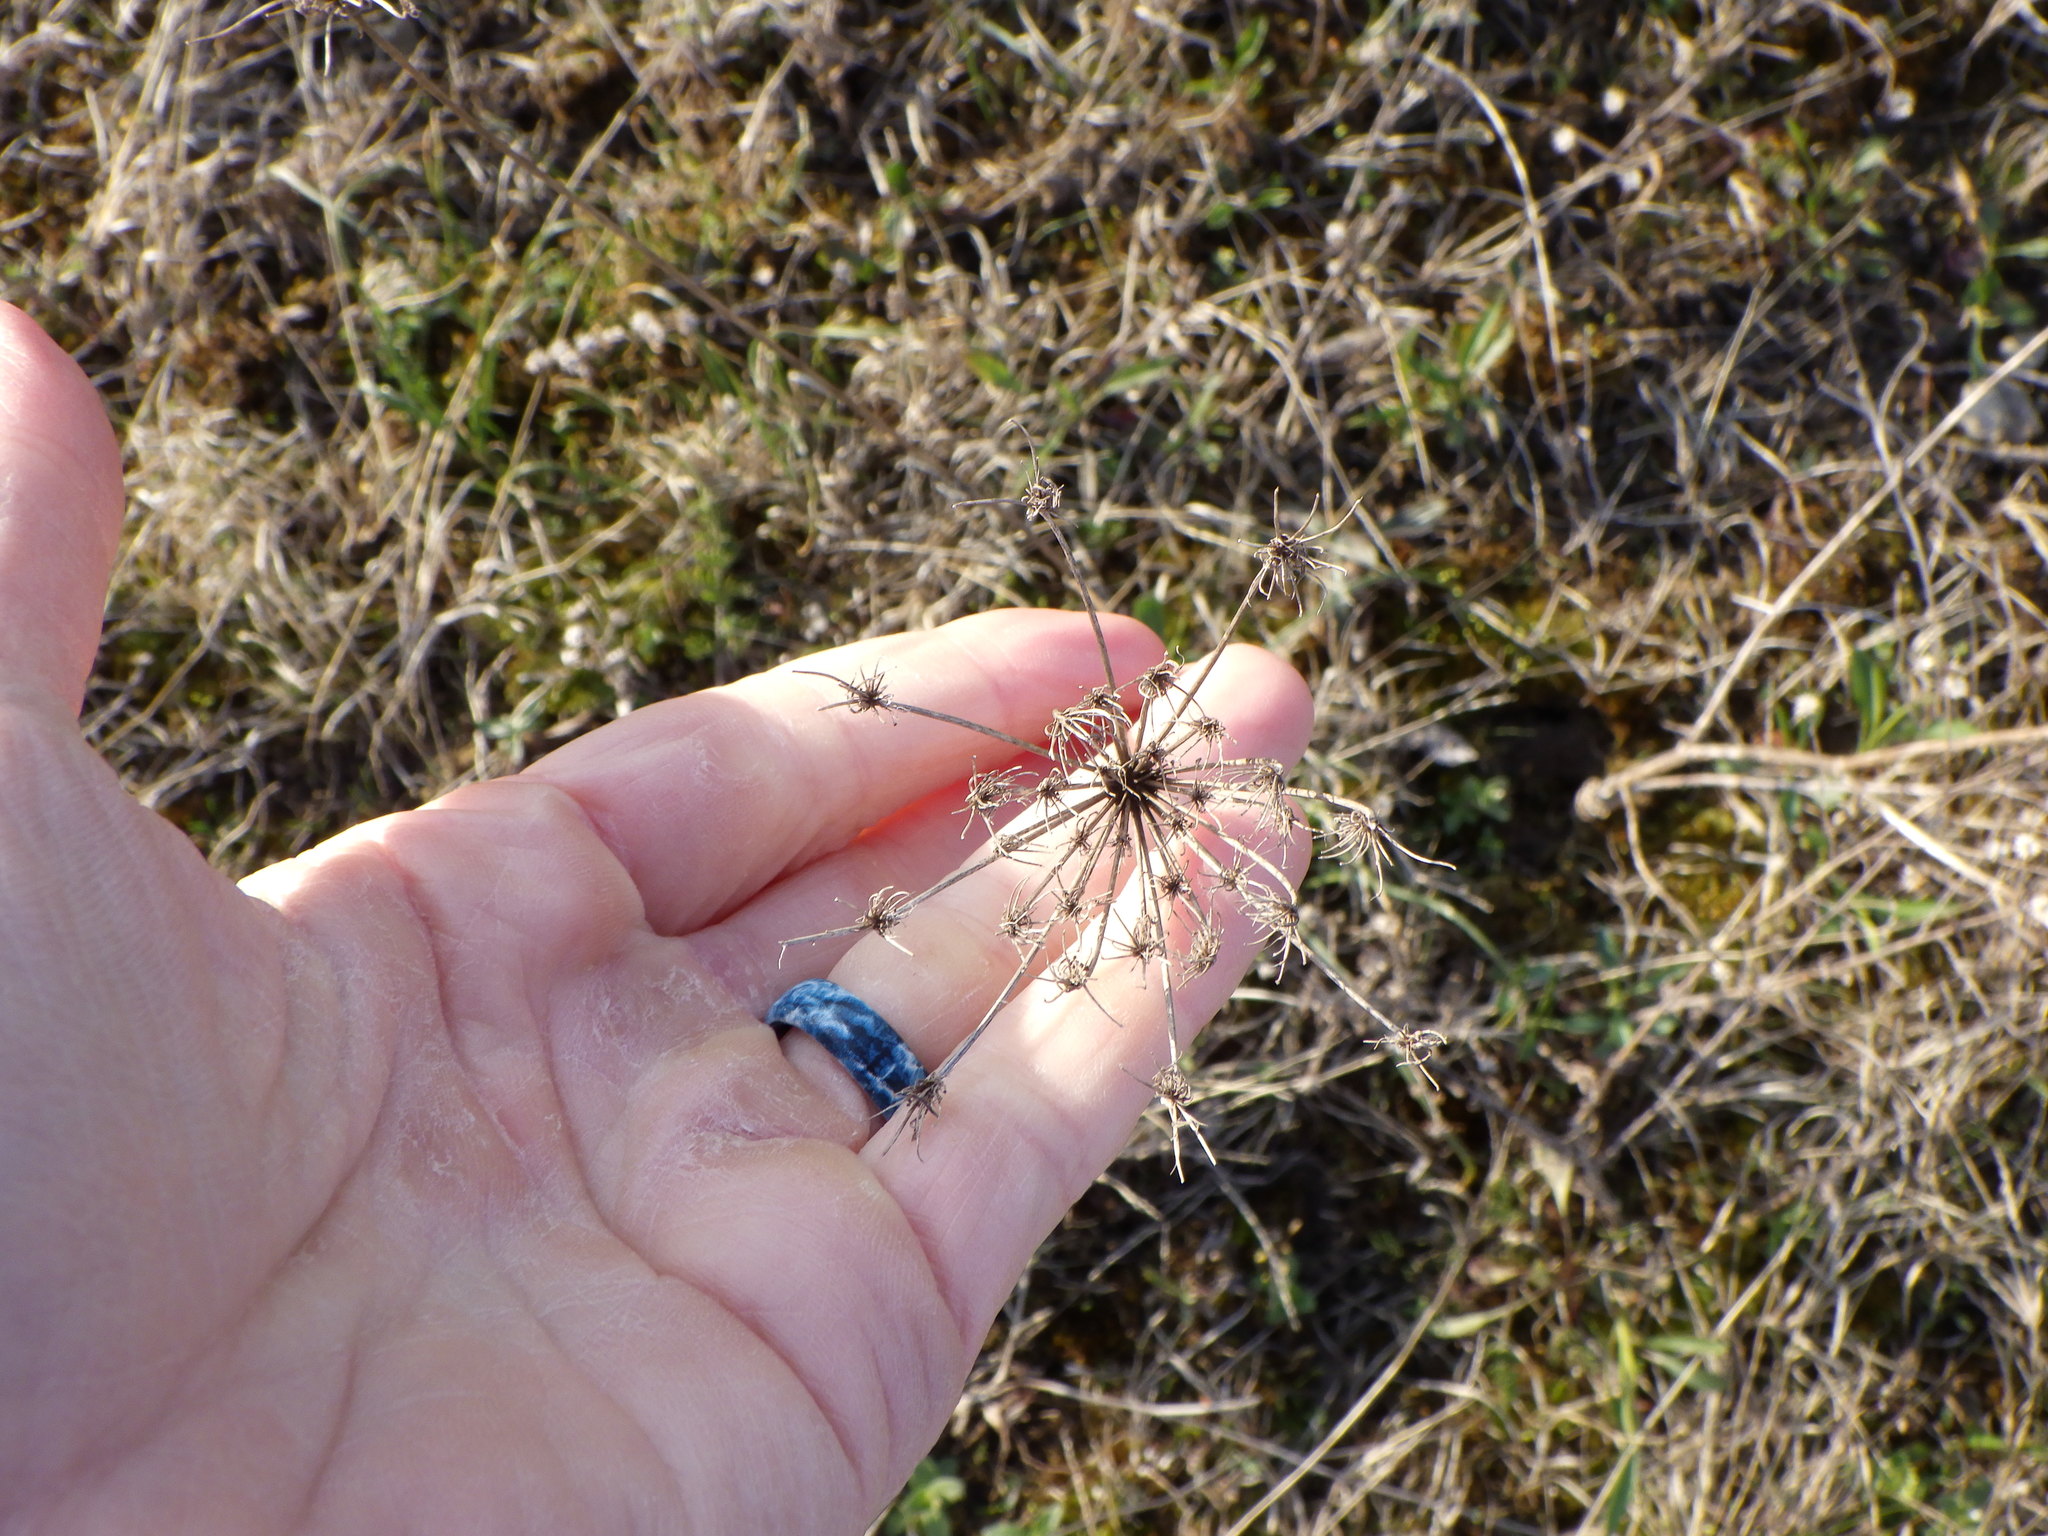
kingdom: Plantae
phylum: Tracheophyta
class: Magnoliopsida
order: Apiales
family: Apiaceae
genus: Daucus
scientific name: Daucus carota
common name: Wild carrot
